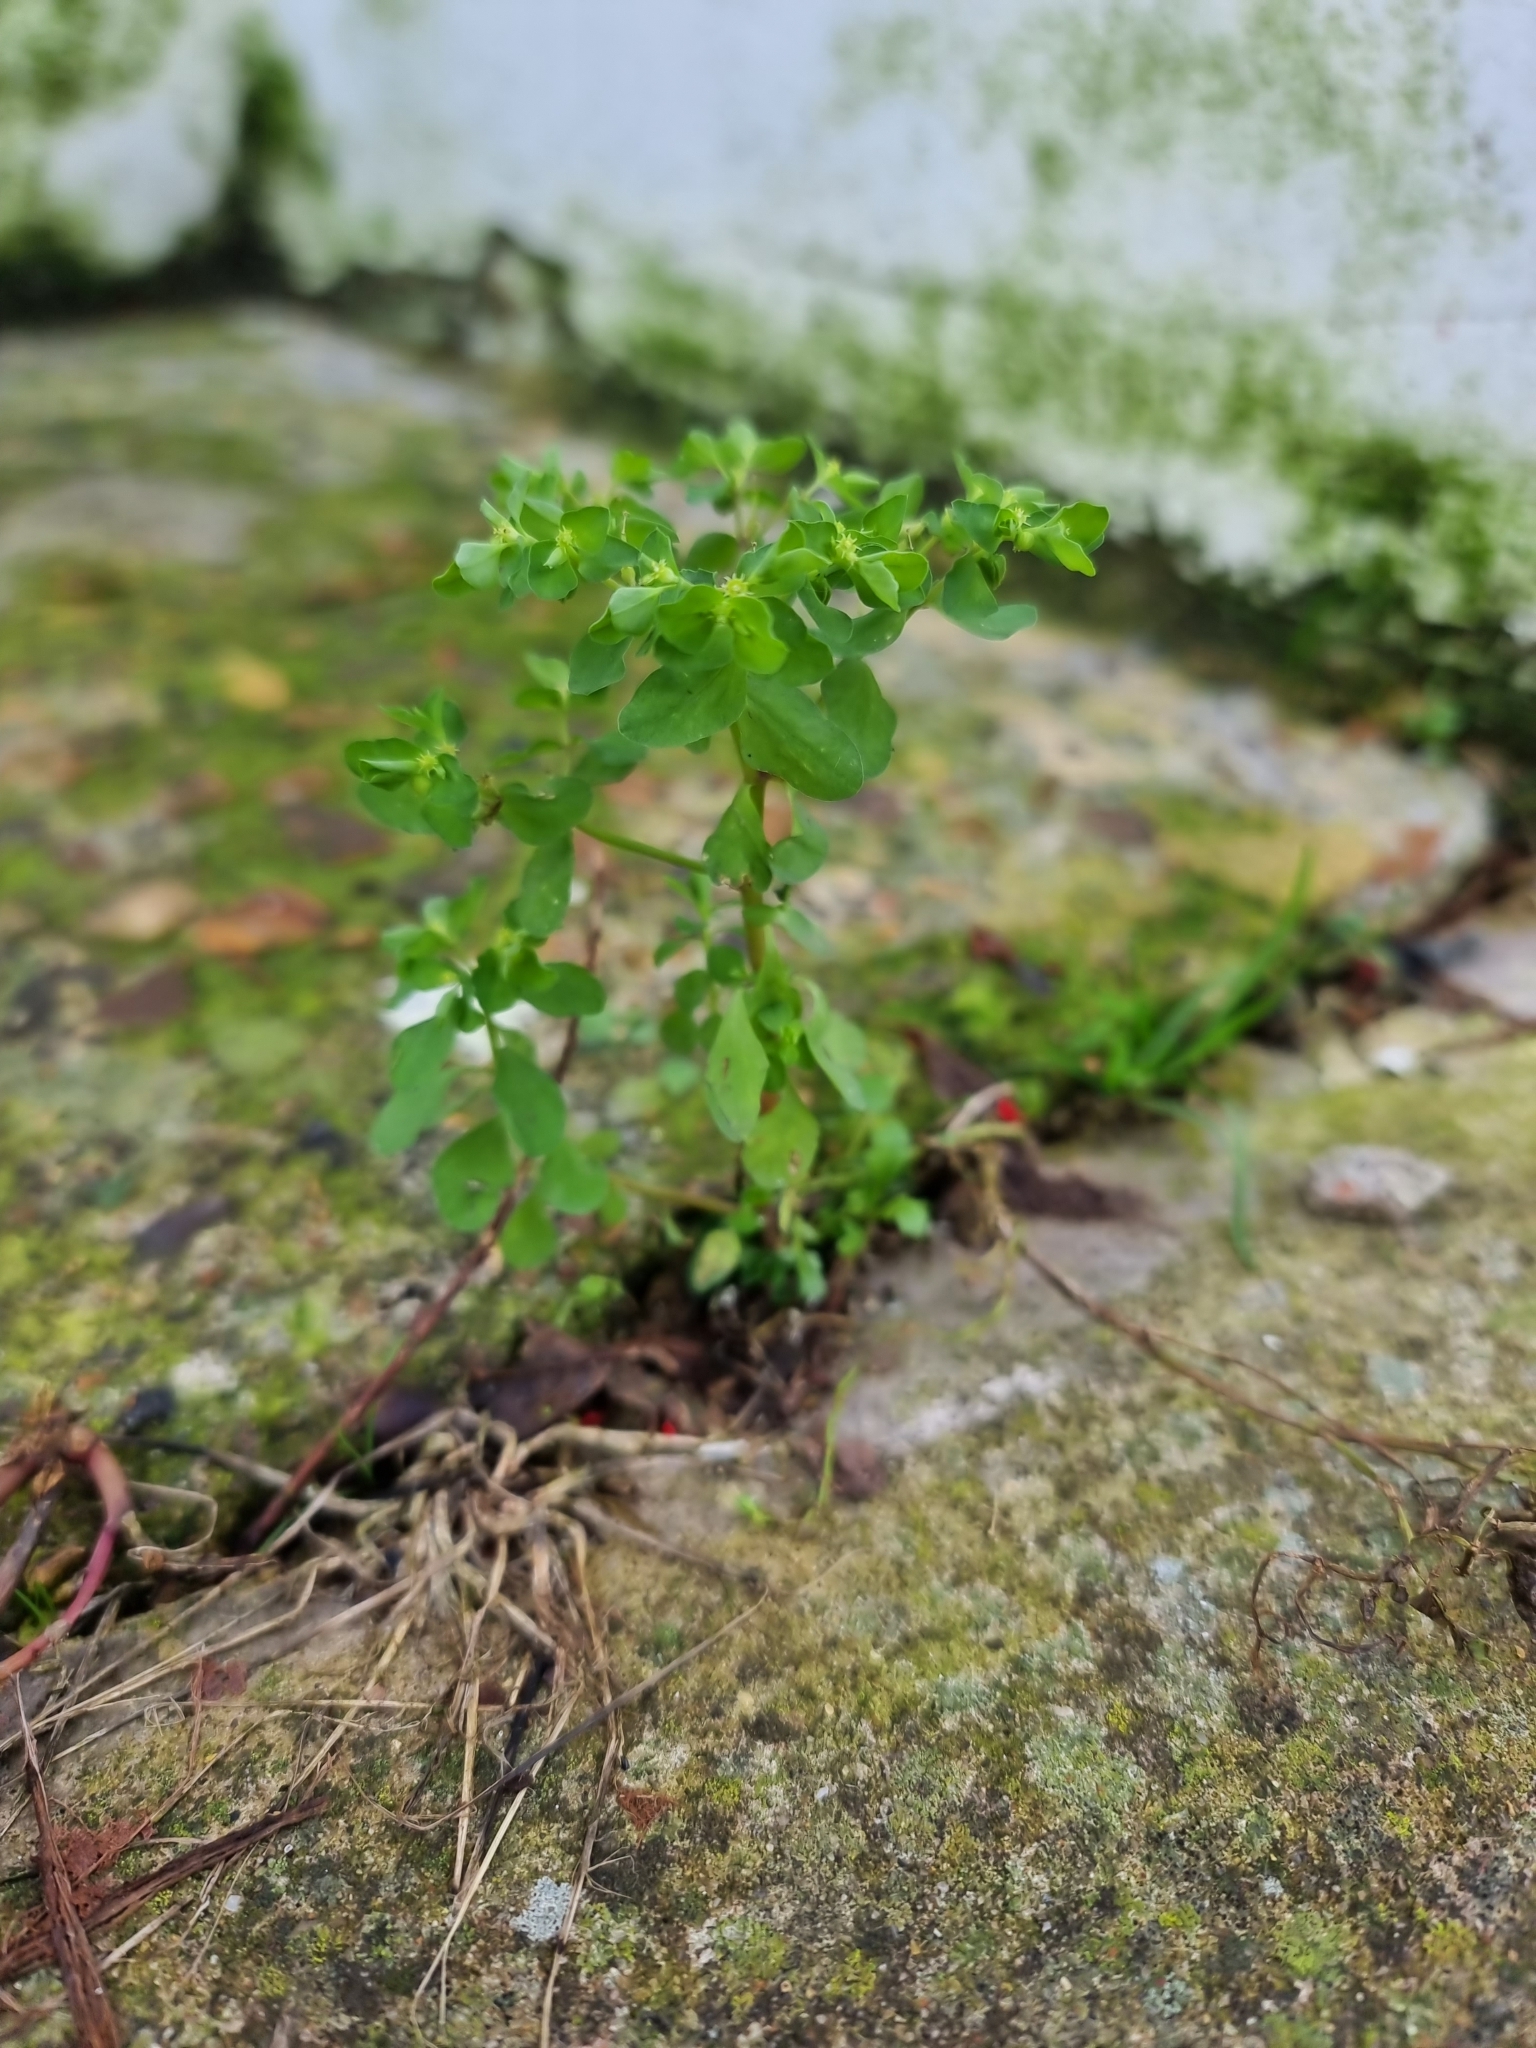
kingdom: Plantae
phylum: Tracheophyta
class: Magnoliopsida
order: Malpighiales
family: Euphorbiaceae
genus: Euphorbia
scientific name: Euphorbia peplus
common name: Petty spurge
